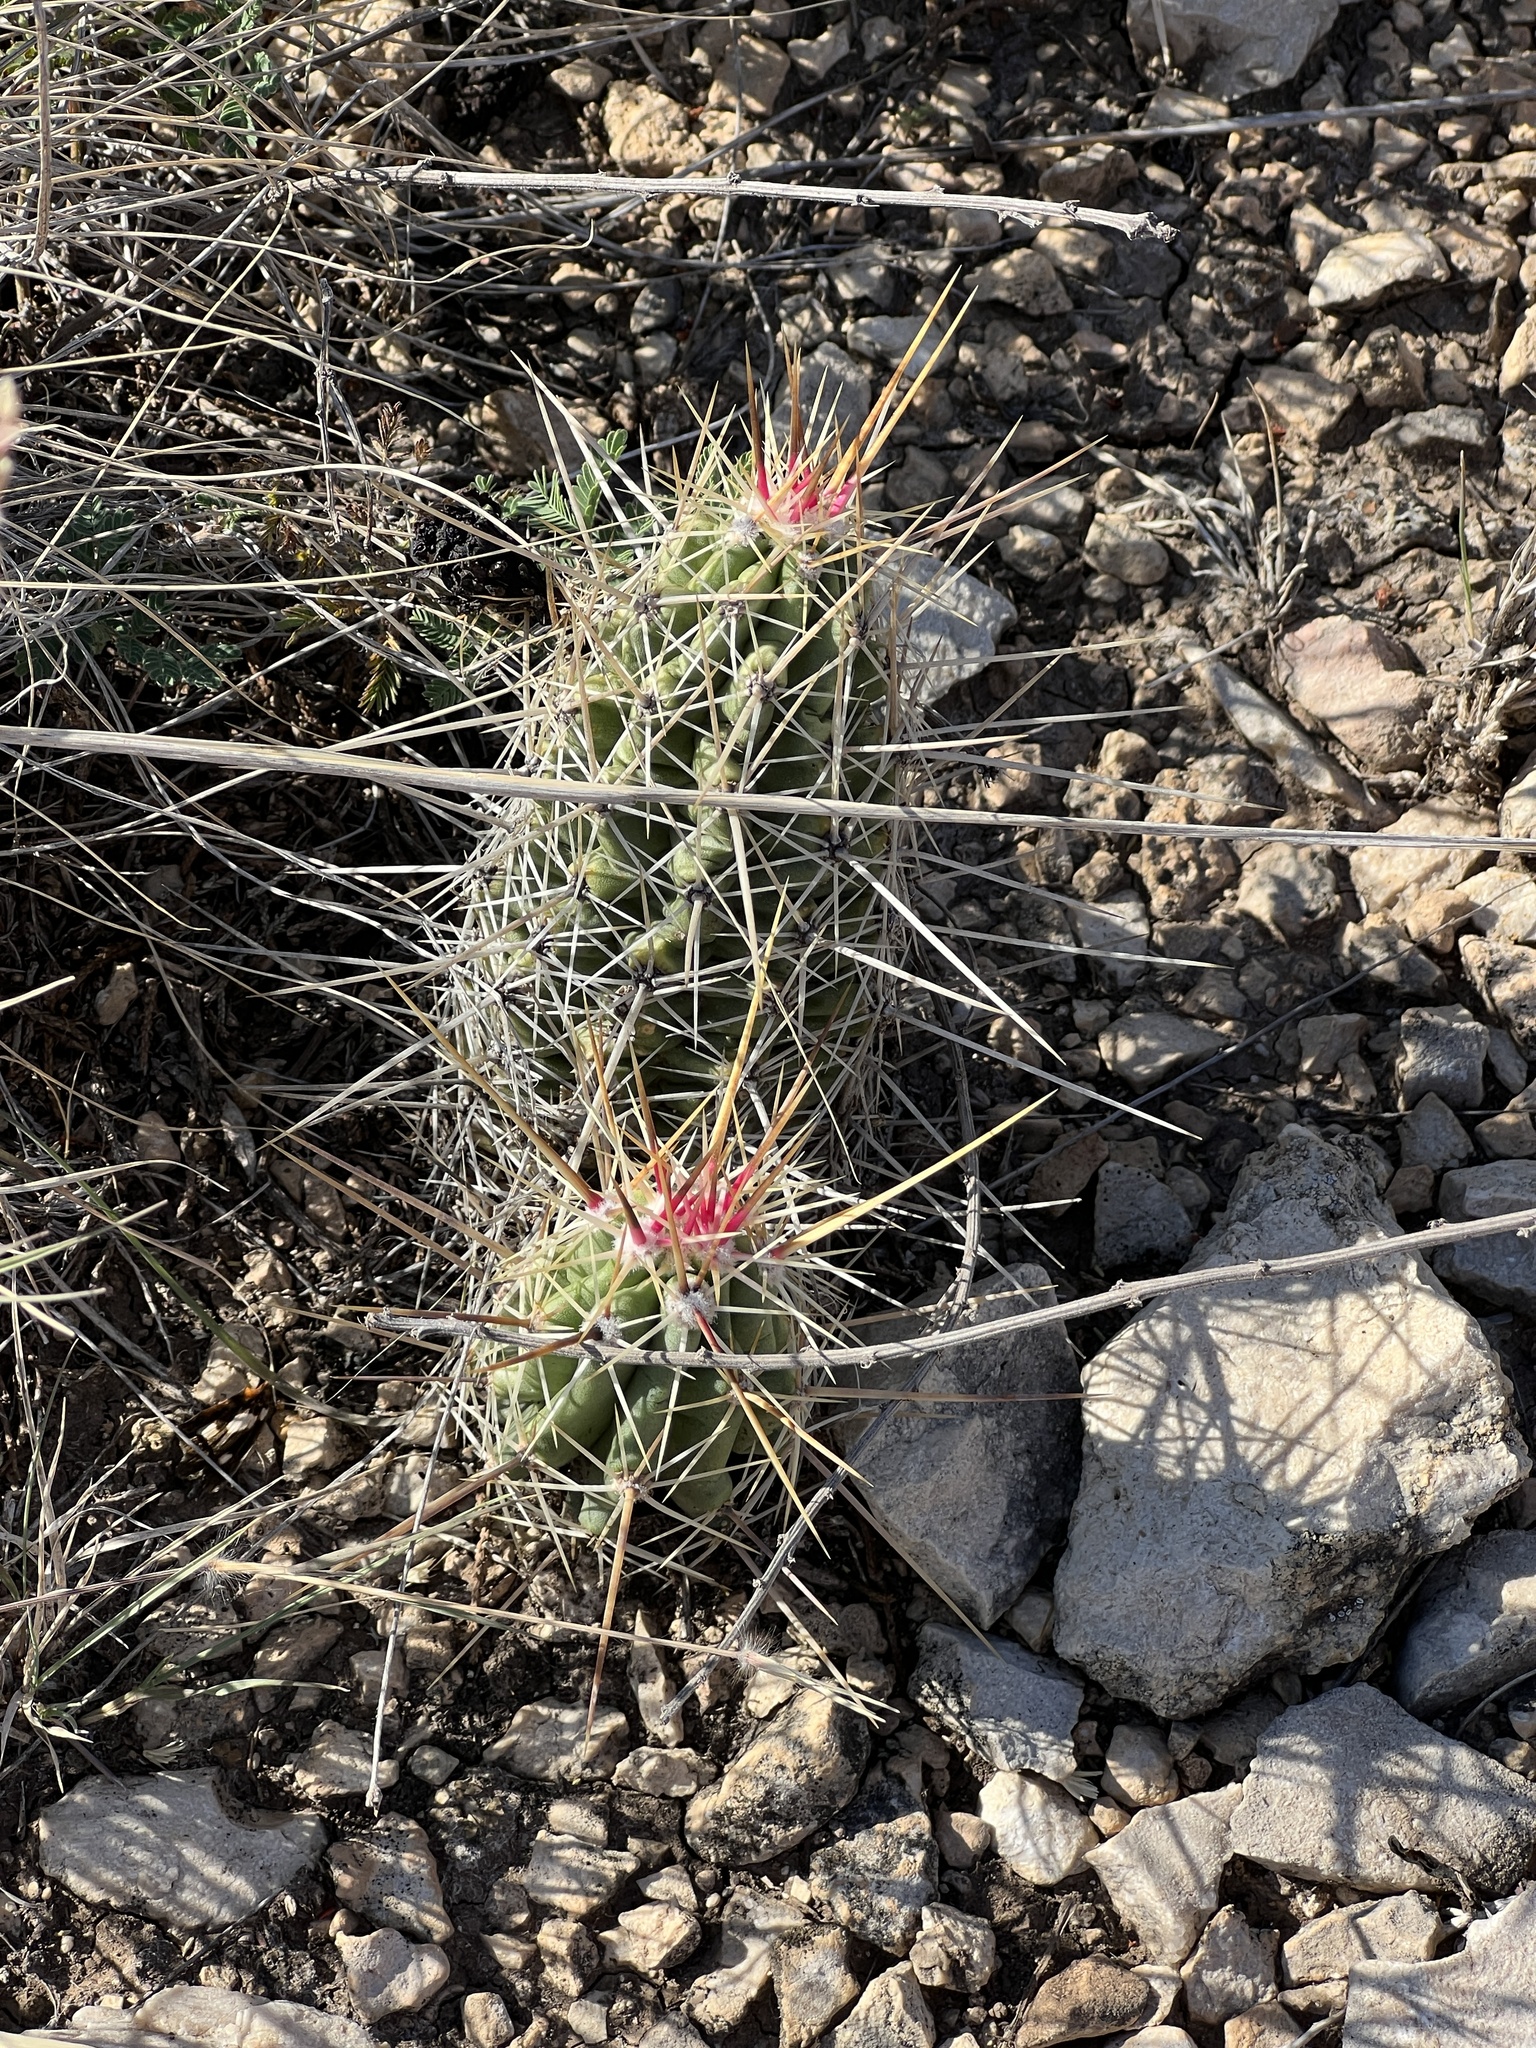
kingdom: Plantae
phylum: Tracheophyta
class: Magnoliopsida
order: Caryophyllales
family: Cactaceae
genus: Echinocereus
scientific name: Echinocereus enneacanthus
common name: Pitaya
